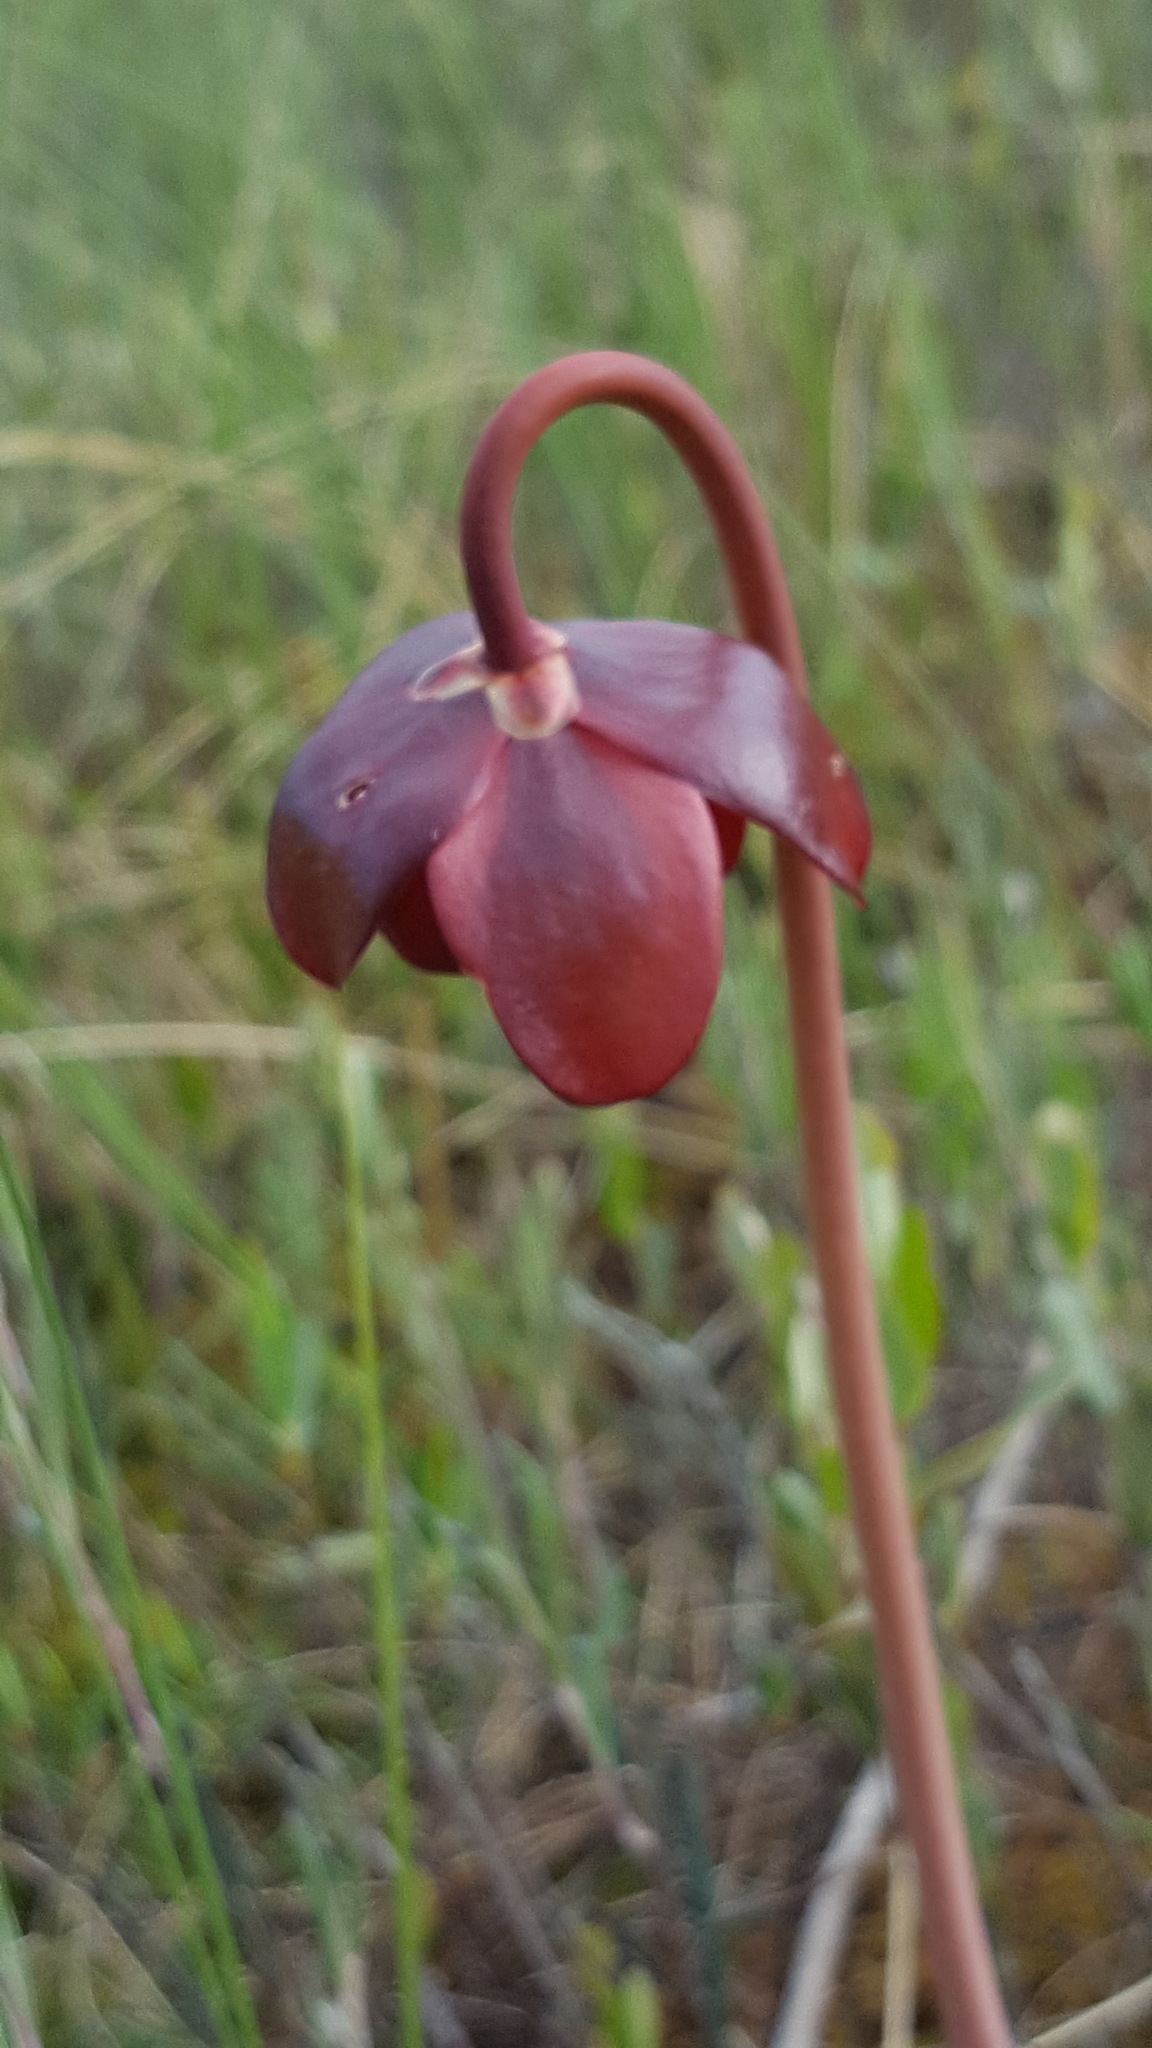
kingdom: Plantae
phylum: Tracheophyta
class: Magnoliopsida
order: Ericales
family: Sarraceniaceae
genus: Sarracenia
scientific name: Sarracenia purpurea
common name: Pitcherplant
